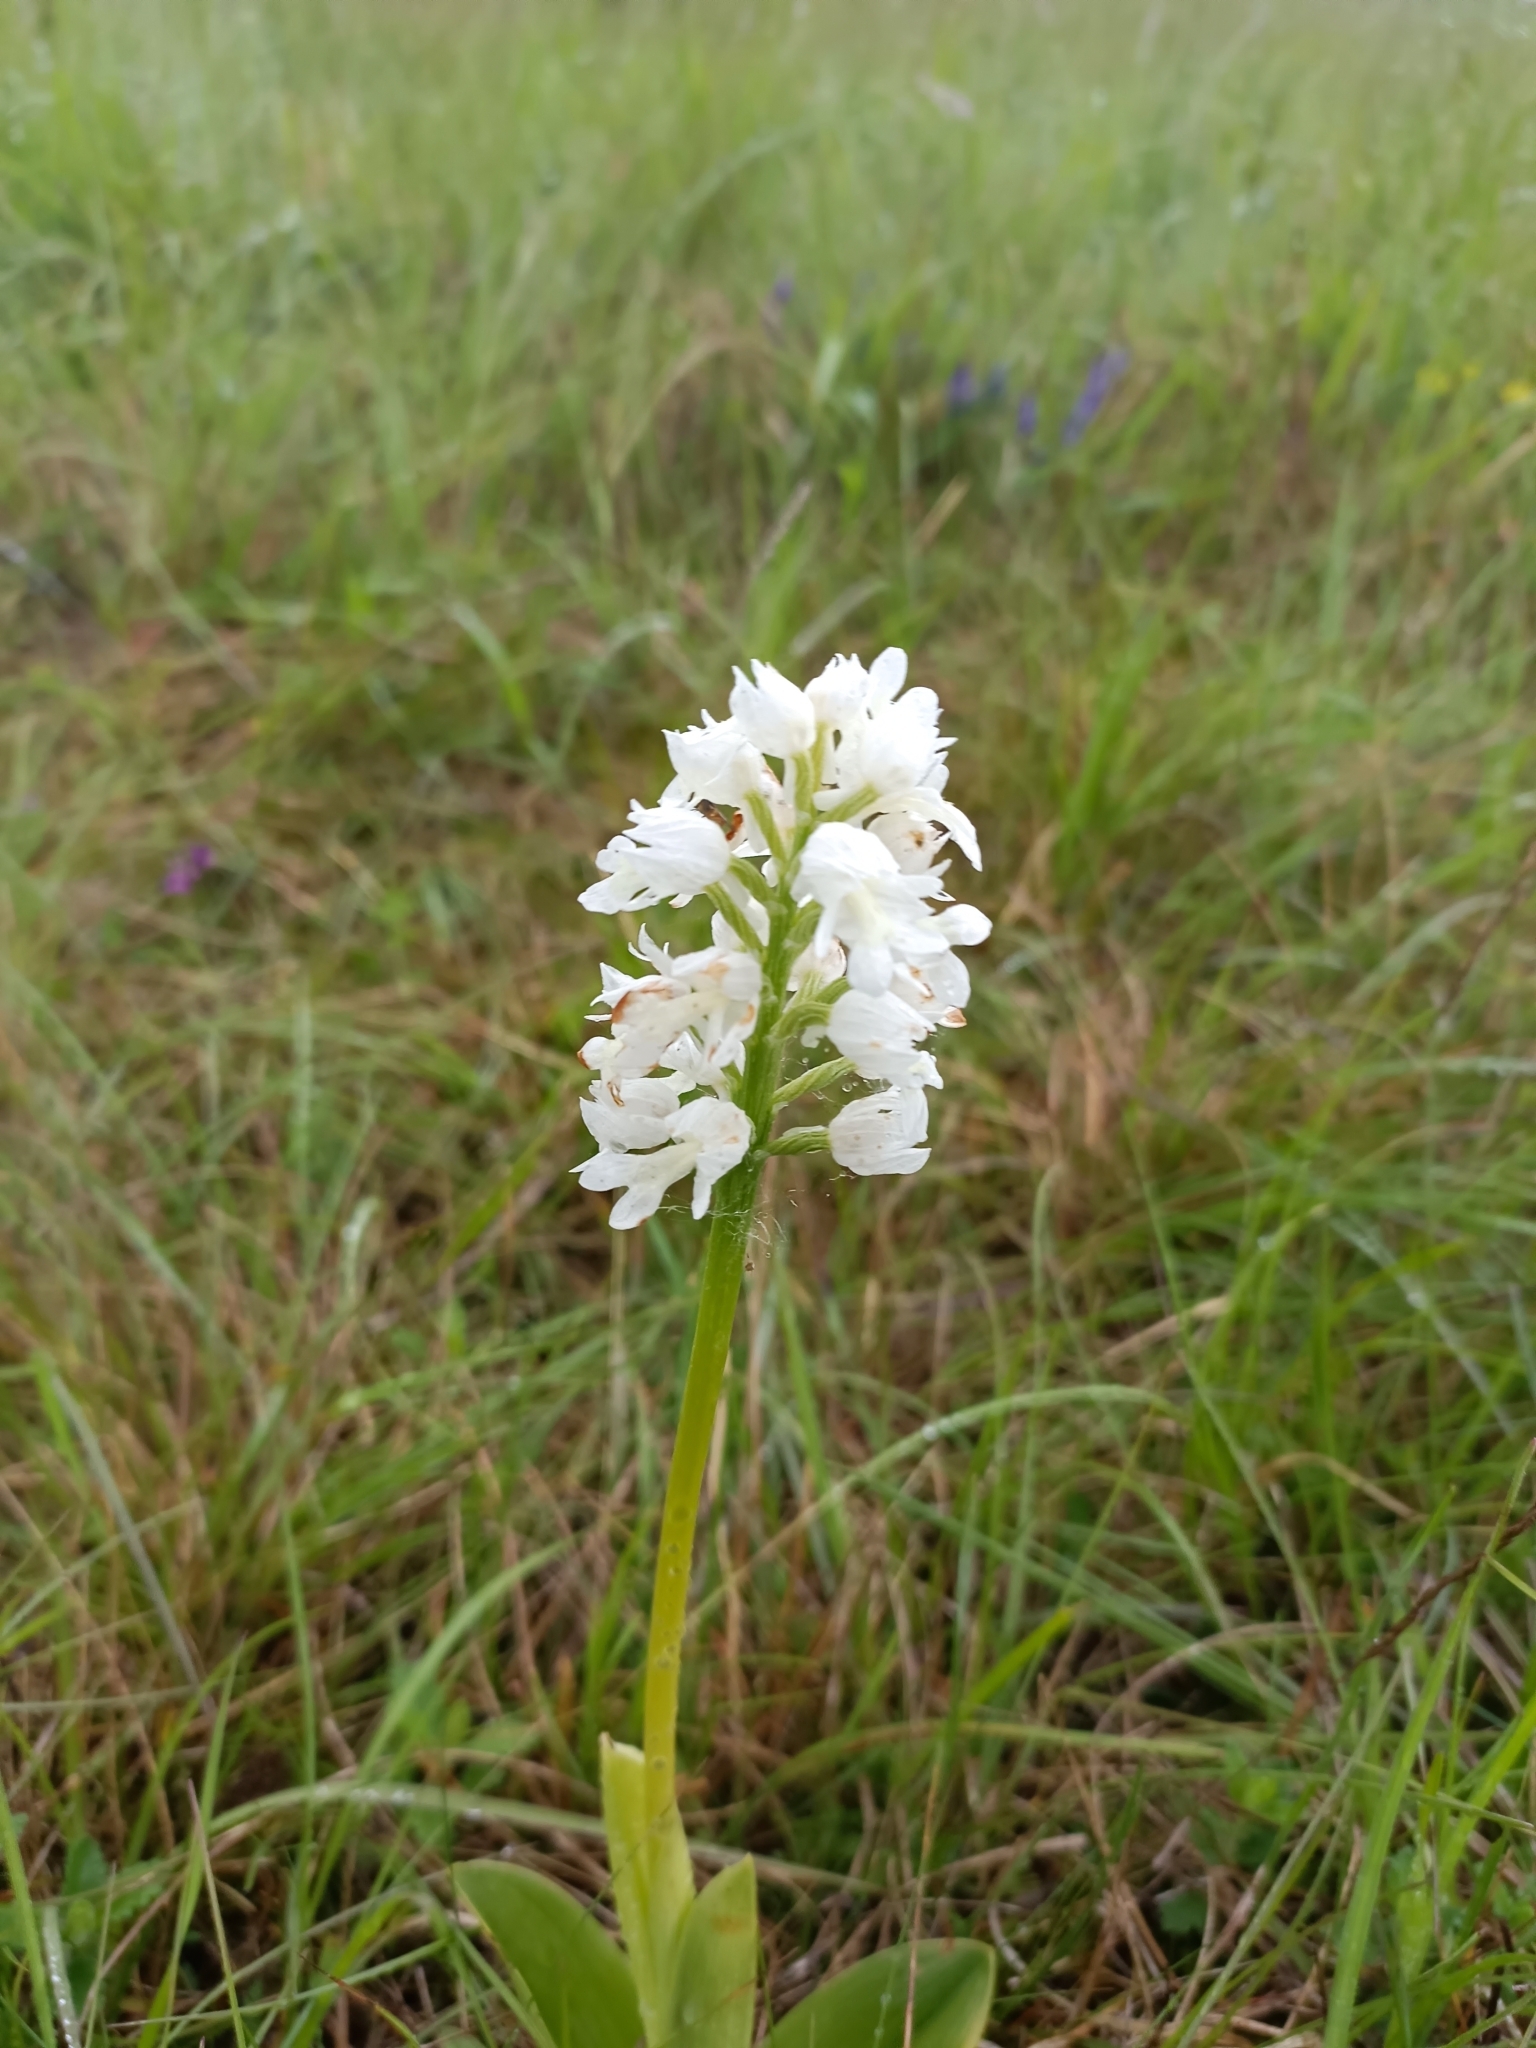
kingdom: Plantae
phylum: Tracheophyta
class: Liliopsida
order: Asparagales
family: Orchidaceae
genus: Orchis
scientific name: Orchis militaris
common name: Military orchid
